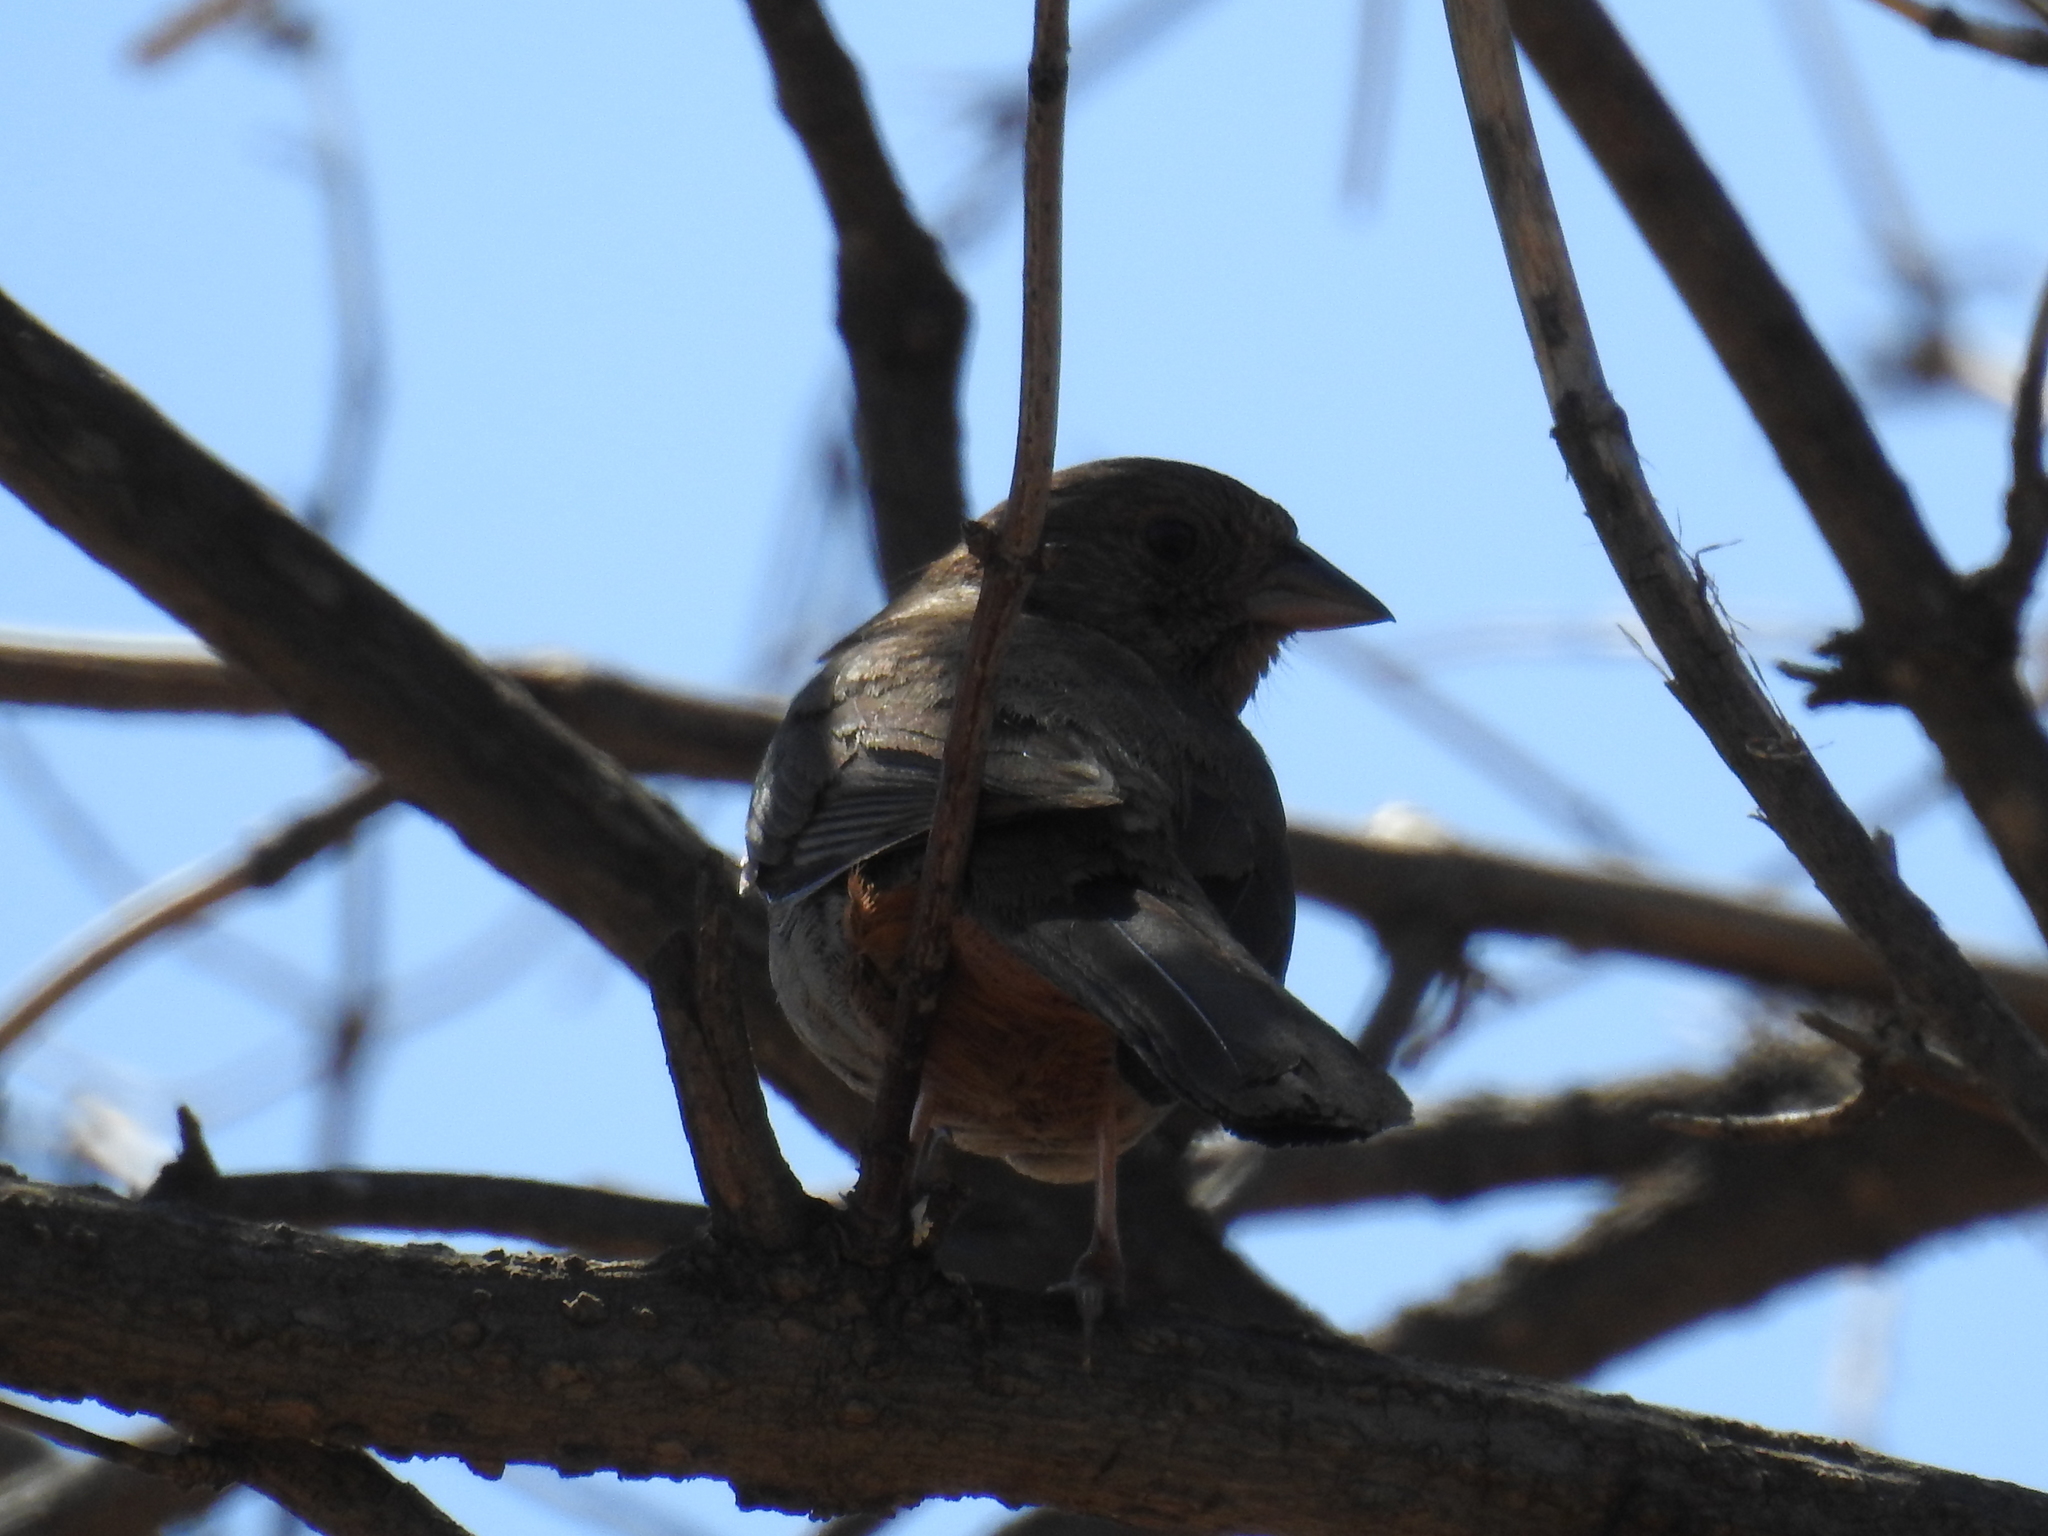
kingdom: Animalia
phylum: Chordata
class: Aves
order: Passeriformes
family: Passerellidae
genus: Melozone
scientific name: Melozone crissalis
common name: California towhee
